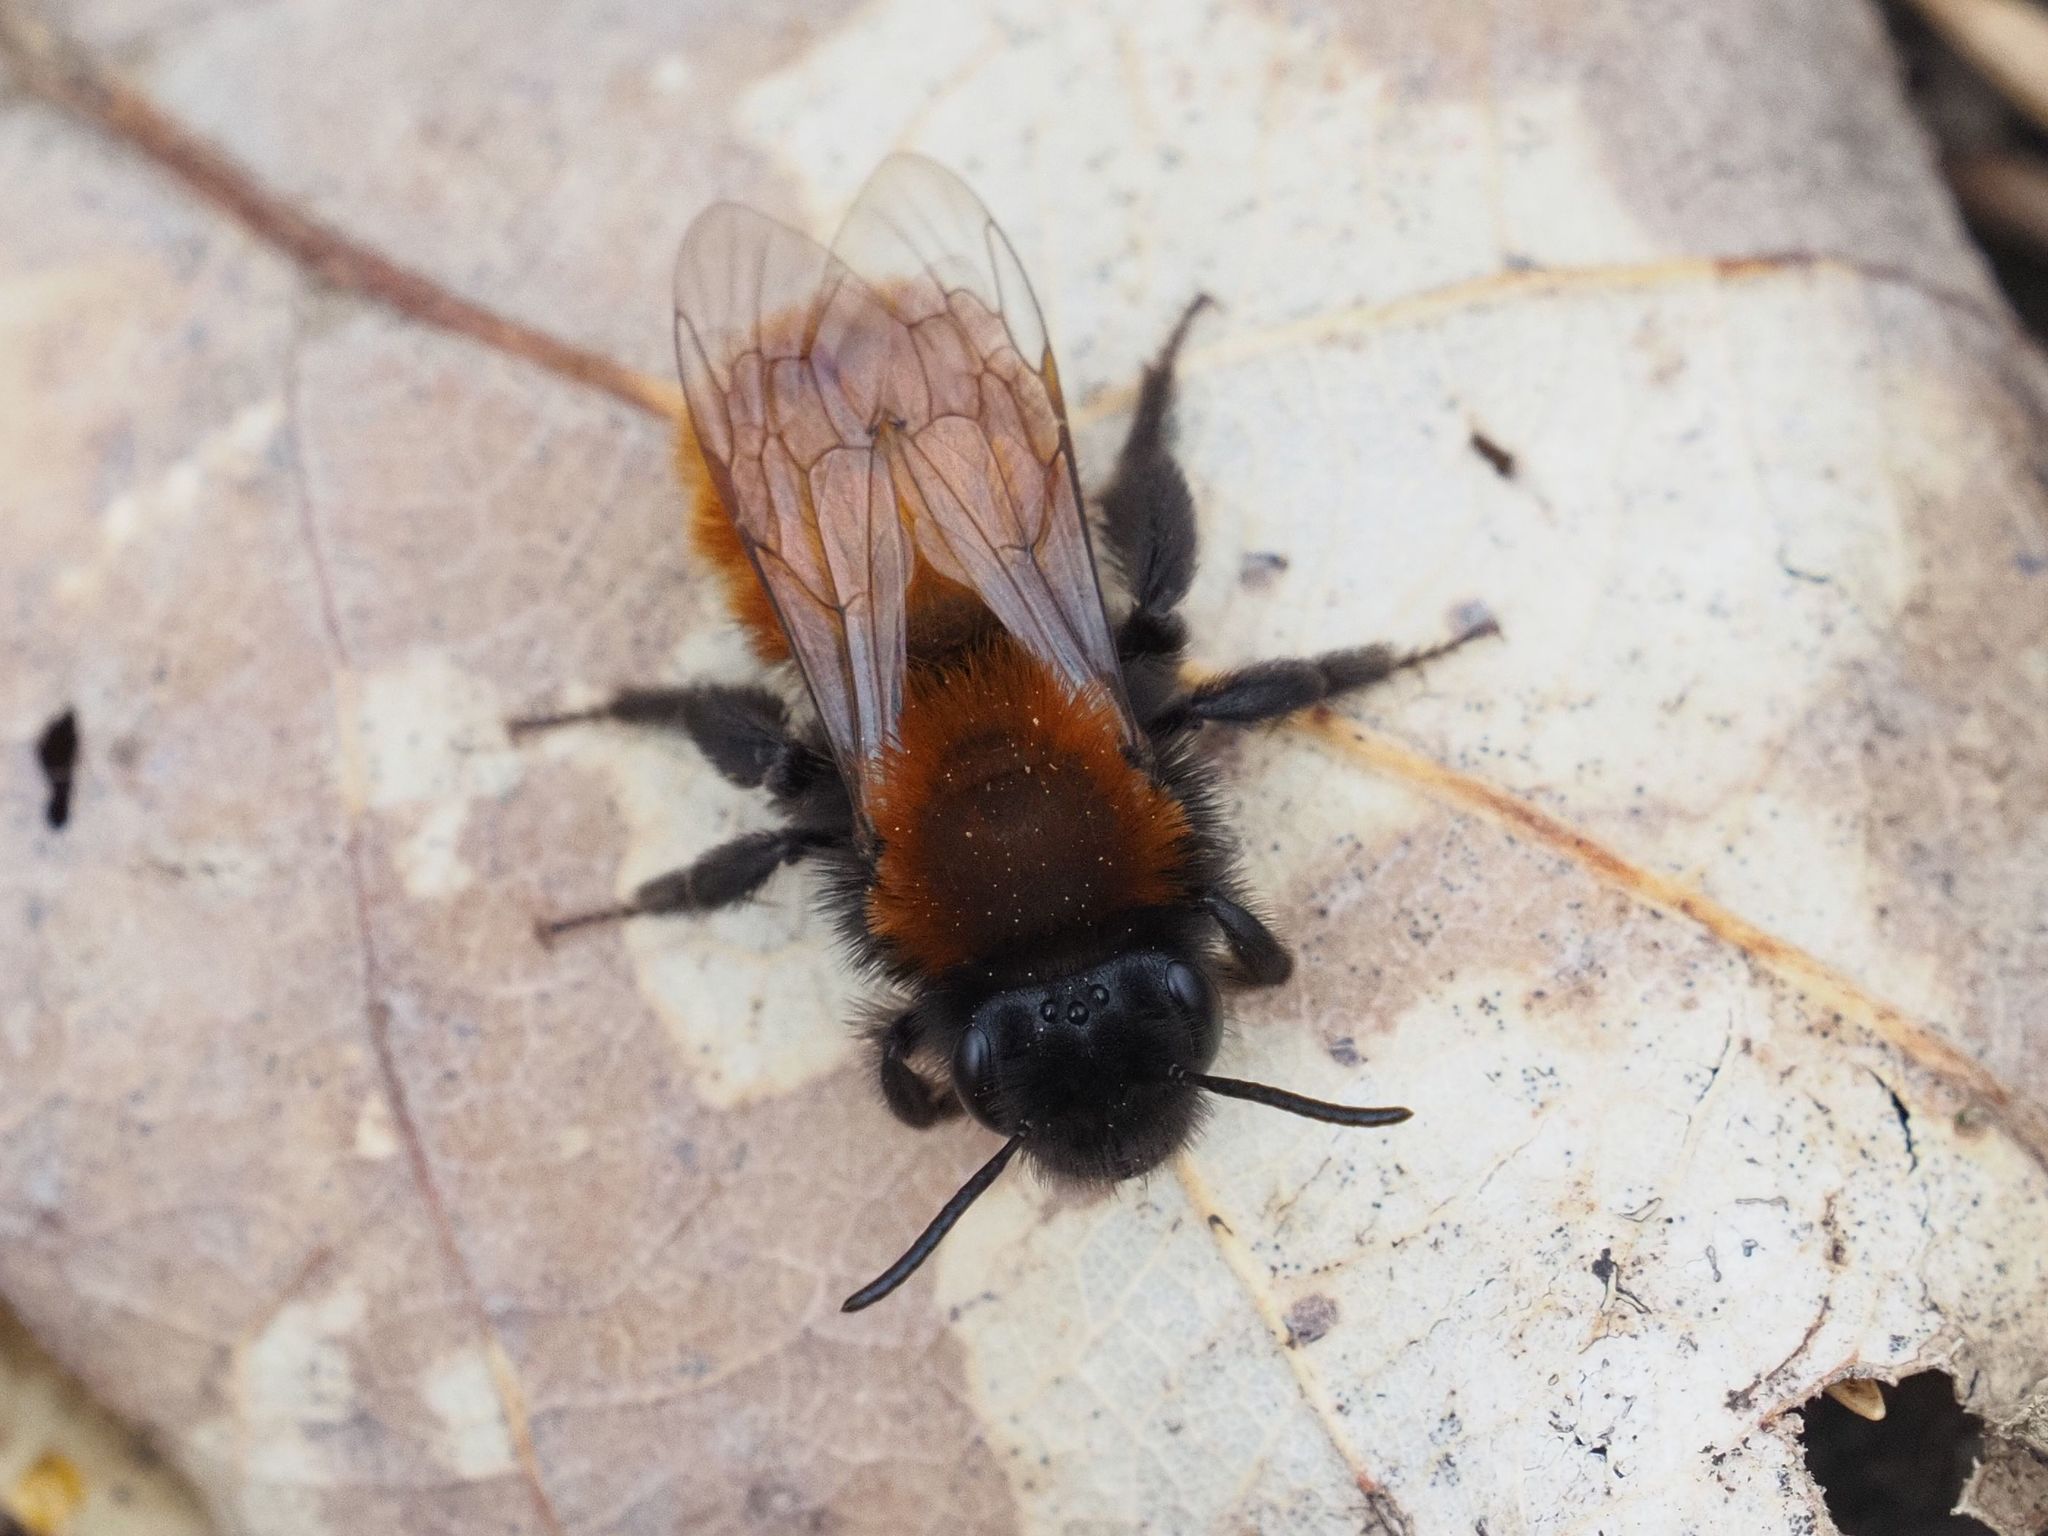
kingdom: Animalia
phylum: Arthropoda
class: Insecta
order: Hymenoptera
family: Andrenidae
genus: Andrena
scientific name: Andrena fulva
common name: Tawny mining bee
